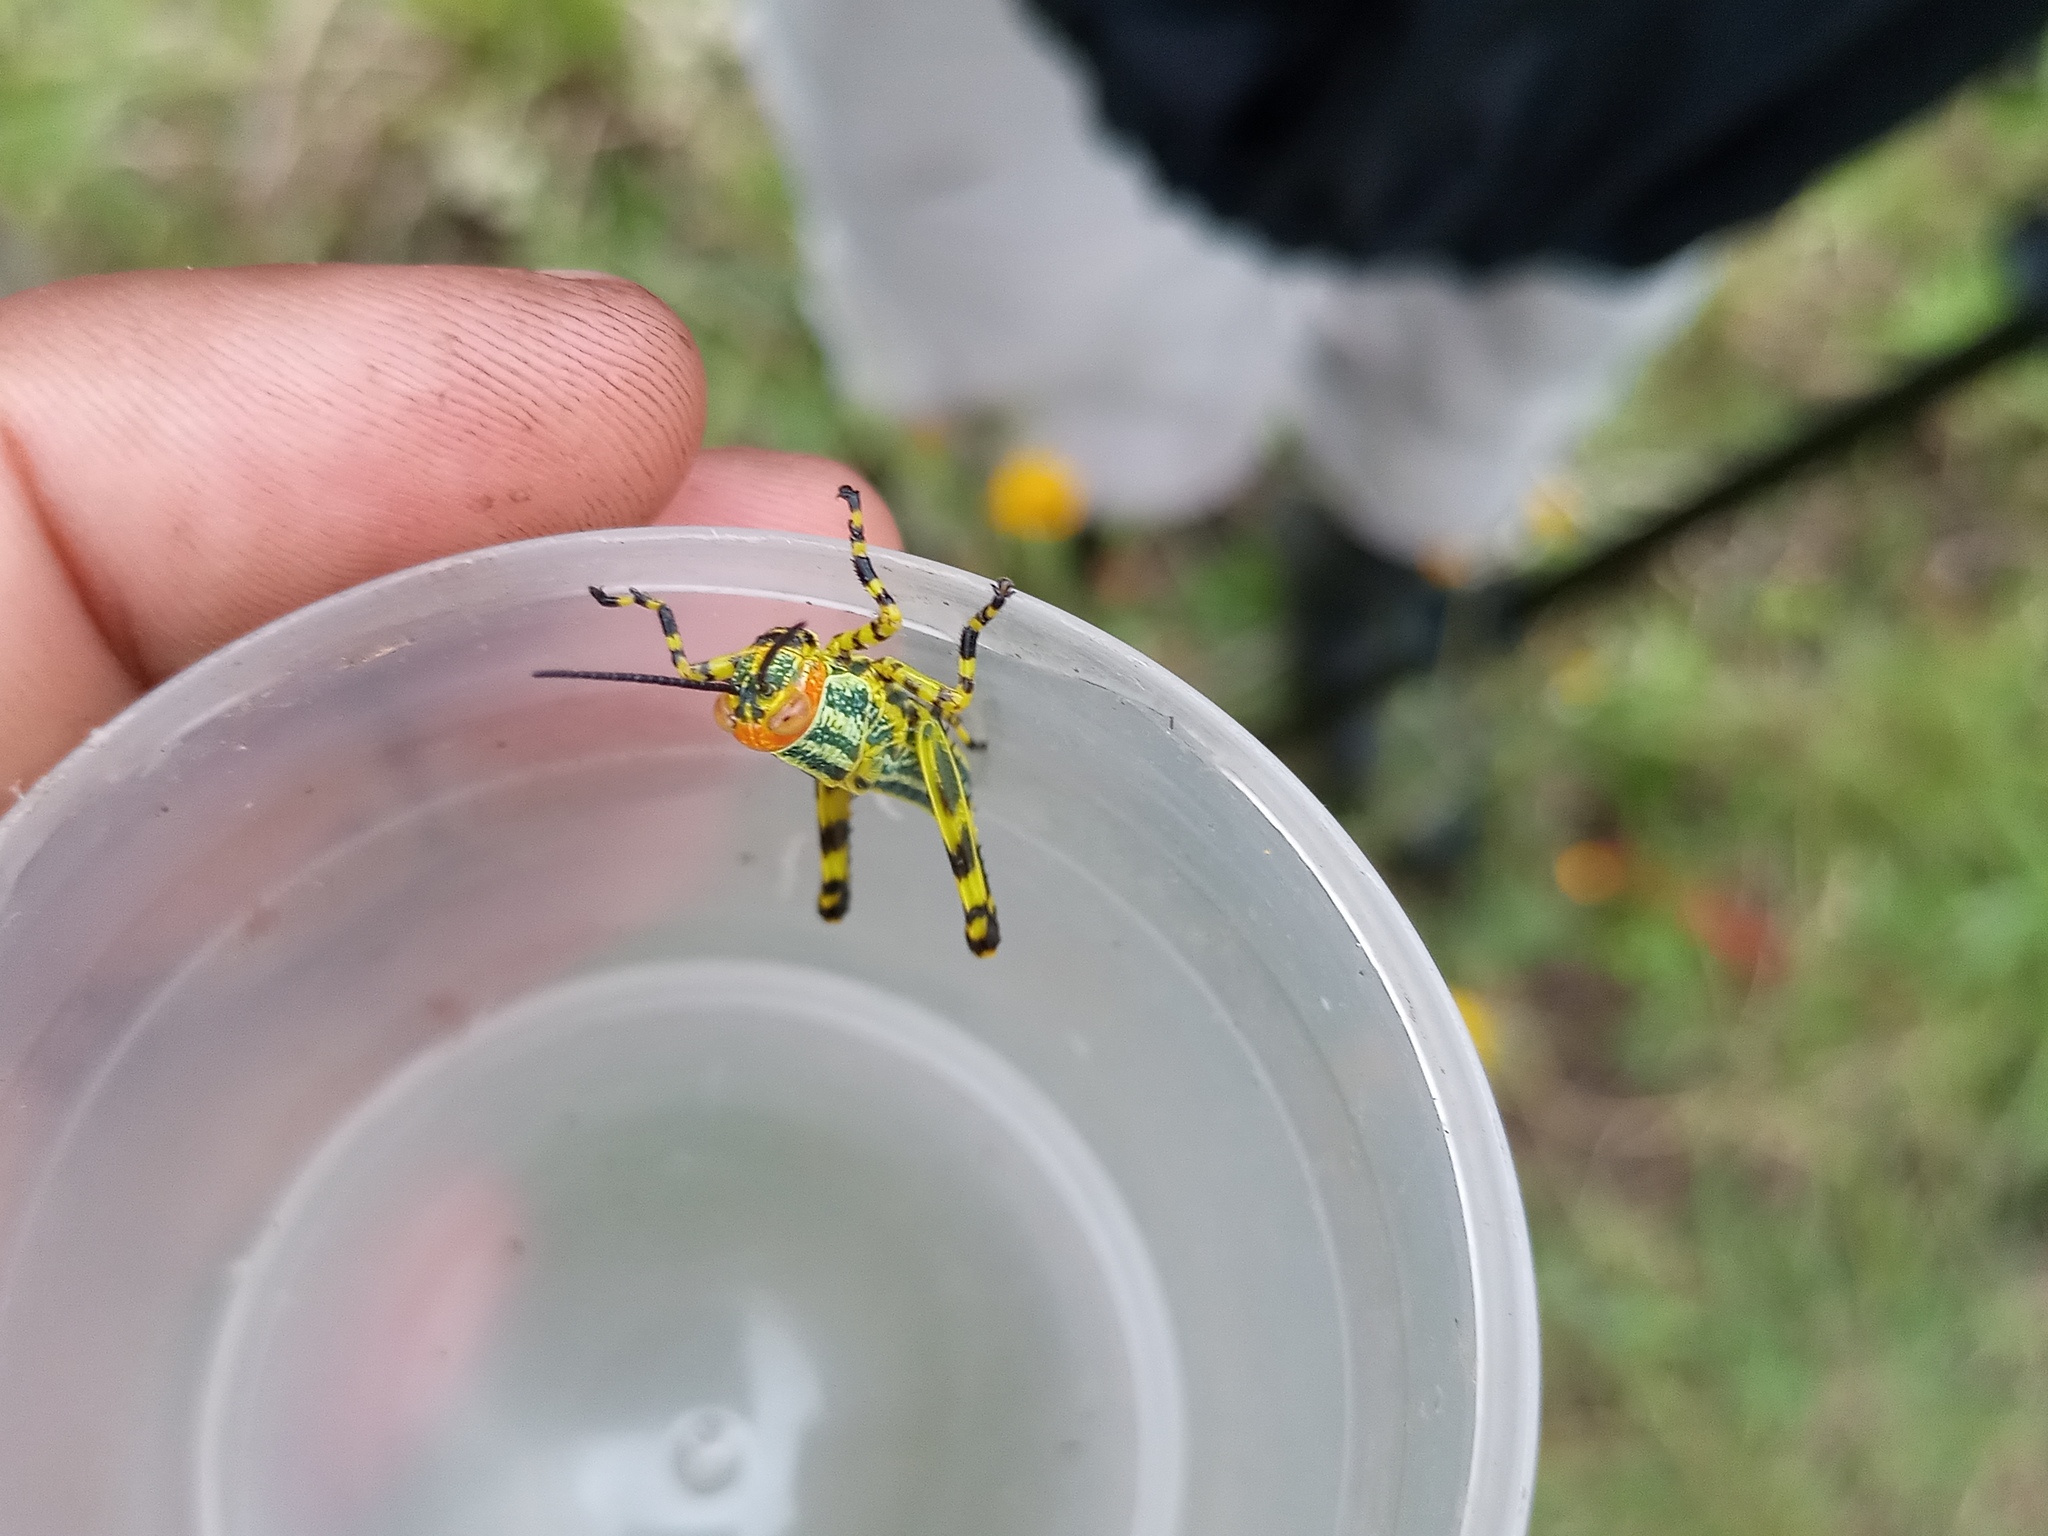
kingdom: Animalia
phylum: Arthropoda
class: Insecta
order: Orthoptera
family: Romaleidae
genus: Zoniopoda
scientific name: Zoniopoda tarsata
